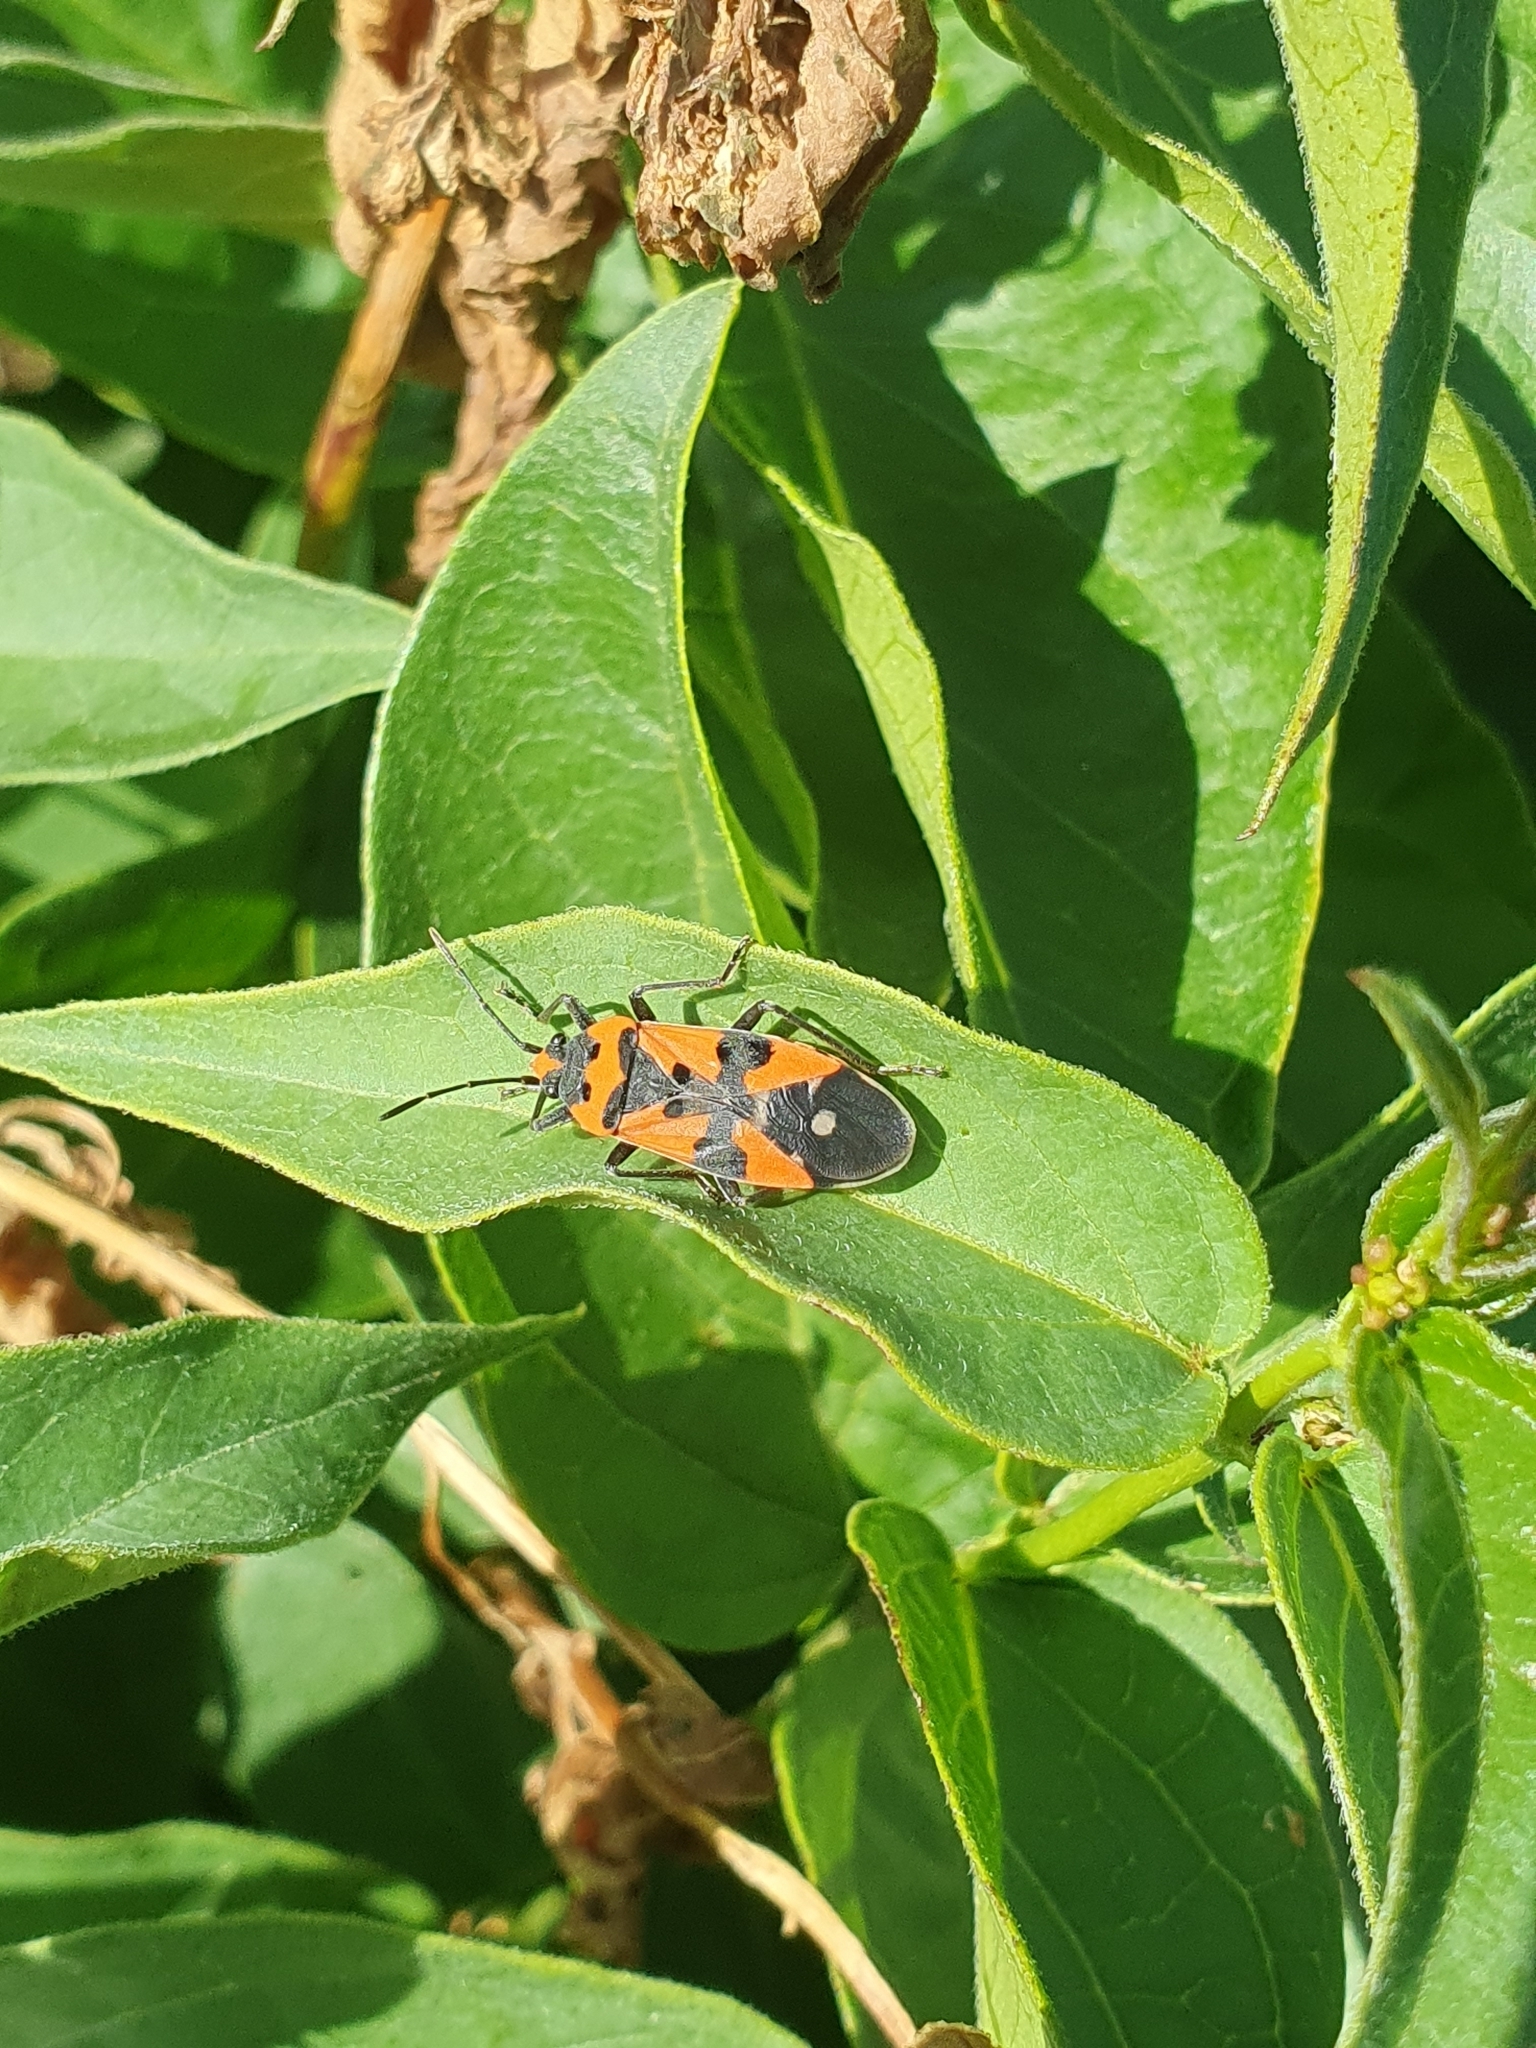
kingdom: Animalia
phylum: Arthropoda
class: Insecta
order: Hemiptera
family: Lygaeidae
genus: Lygaeus
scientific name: Lygaeus equestris
